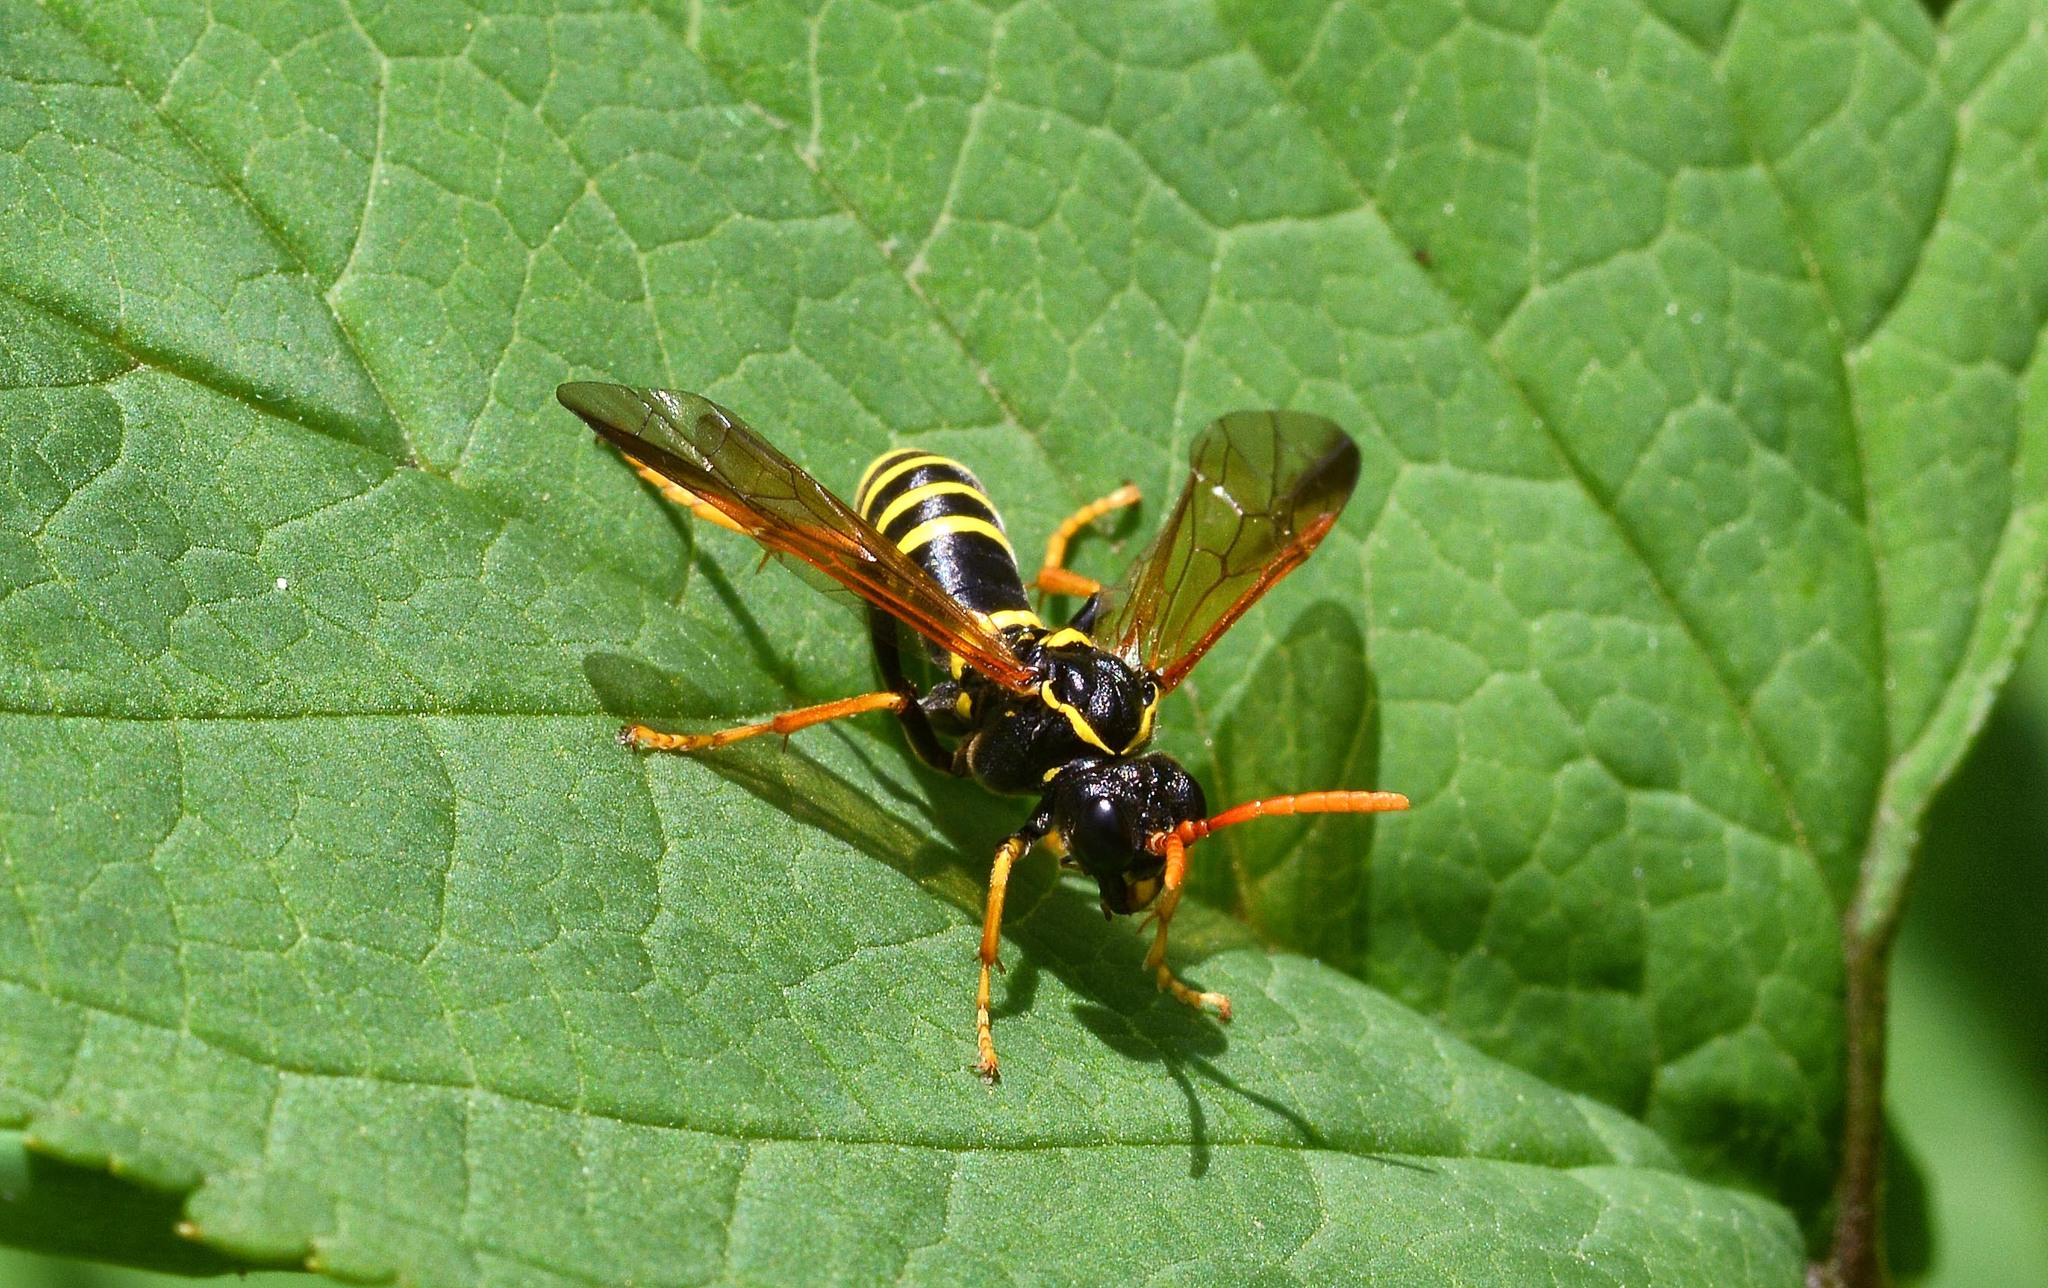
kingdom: Animalia
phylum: Arthropoda
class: Insecta
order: Hymenoptera
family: Tenthredinidae
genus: Tenthredo
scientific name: Tenthredo scrophulariae
